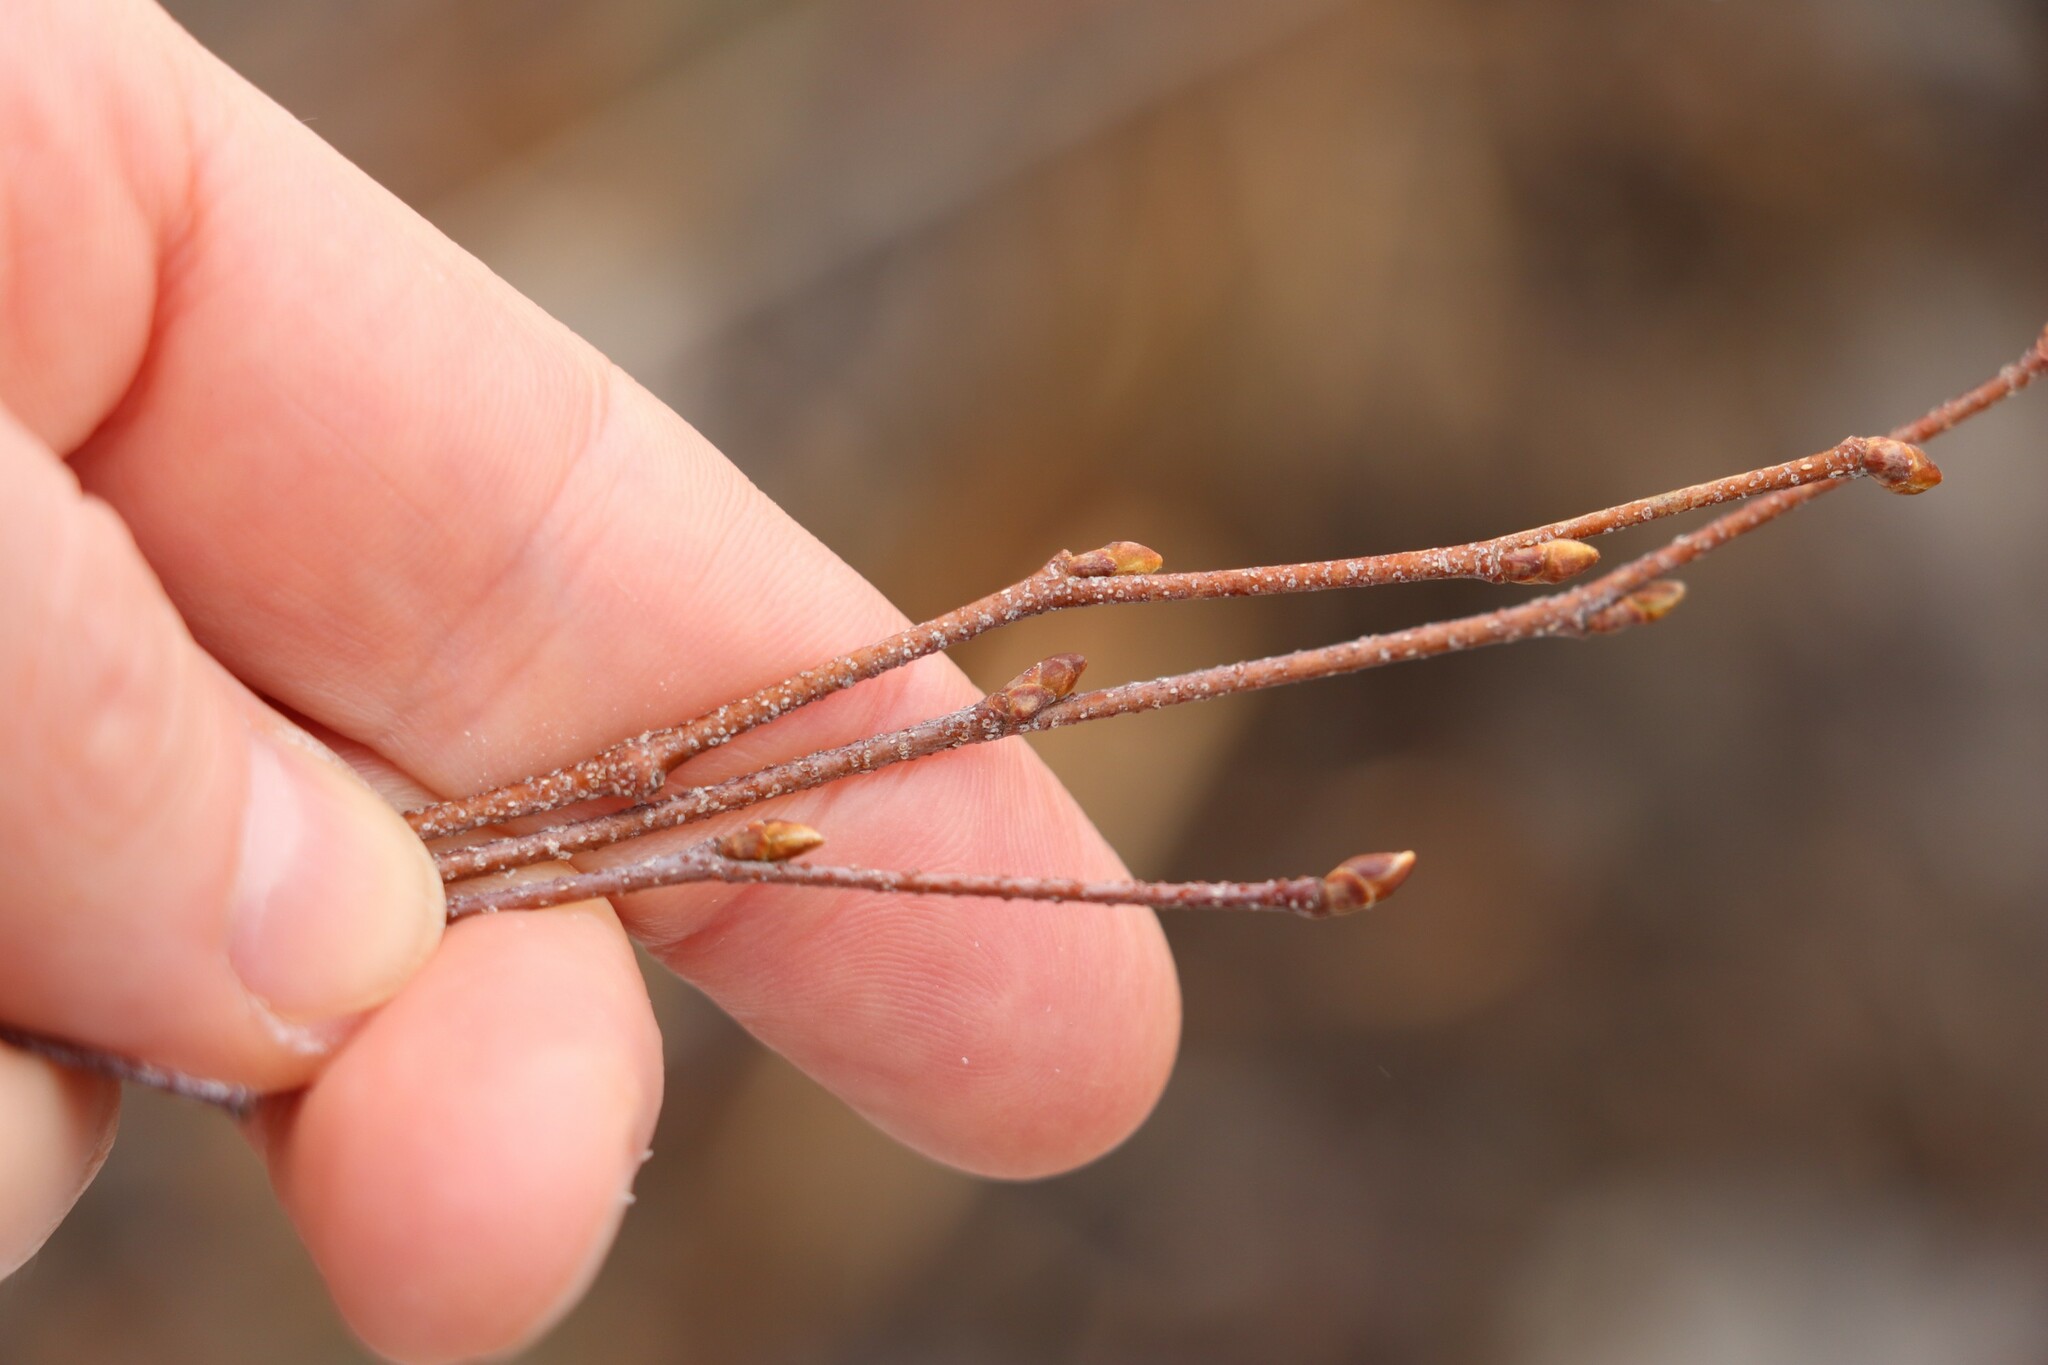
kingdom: Plantae
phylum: Tracheophyta
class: Magnoliopsida
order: Fagales
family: Betulaceae
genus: Betula
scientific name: Betula pendula
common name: Silver birch
